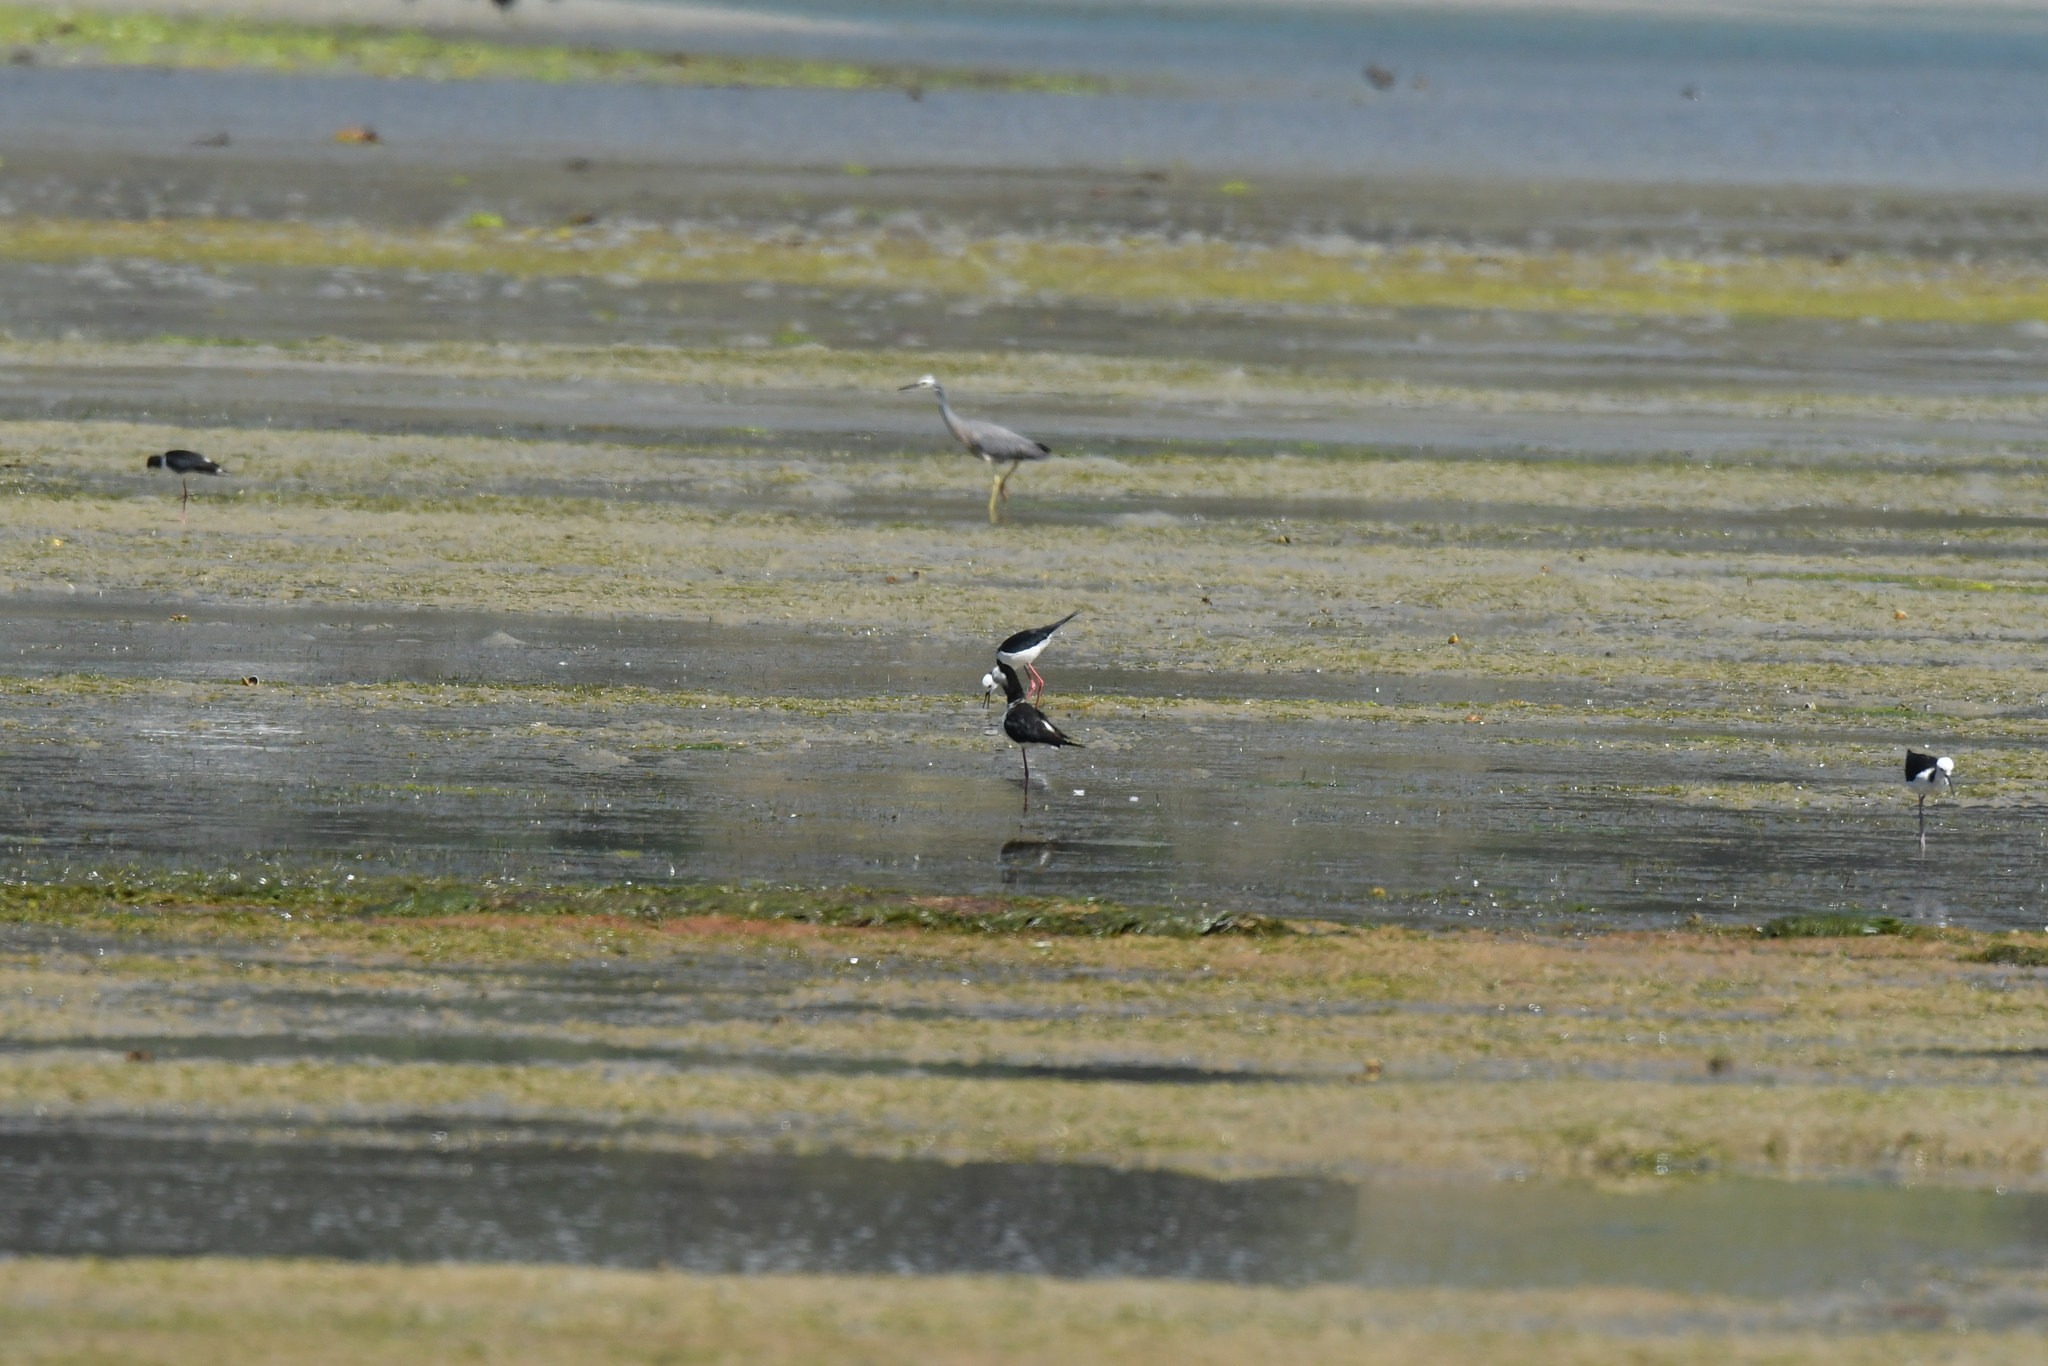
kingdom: Animalia
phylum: Chordata
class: Aves
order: Charadriiformes
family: Recurvirostridae
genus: Himantopus
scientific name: Himantopus leucocephalus
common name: White-headed stilt
